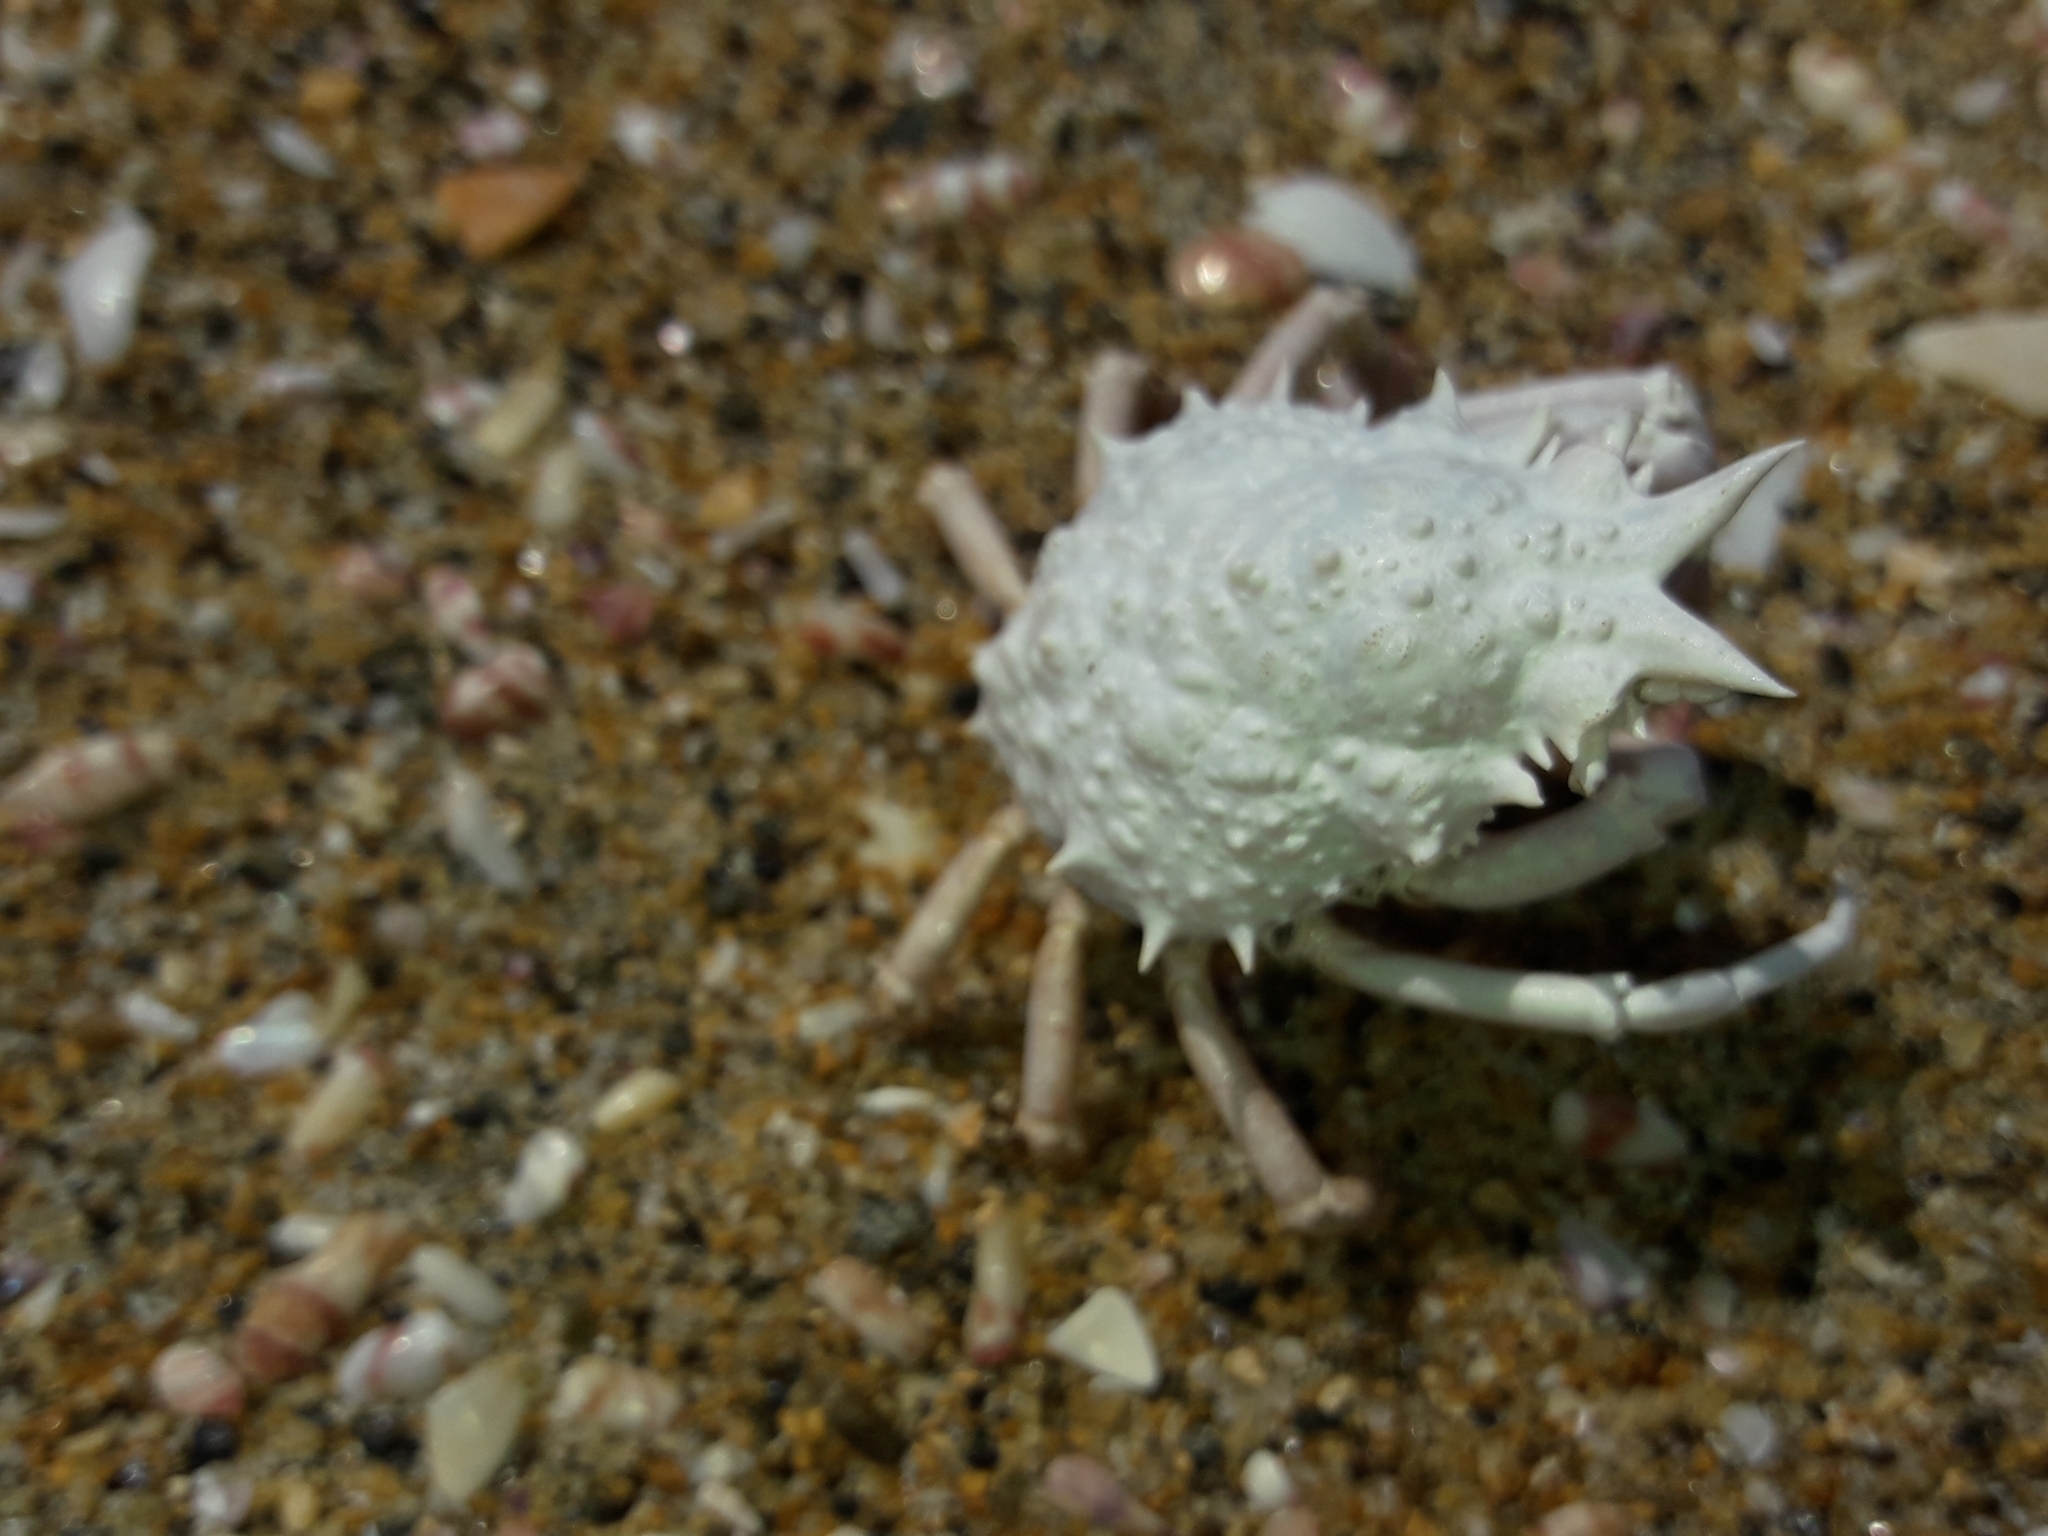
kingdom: Animalia
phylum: Arthropoda
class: Malacostraca
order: Decapoda
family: Majidae
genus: Notomithrax
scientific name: Notomithrax minor
